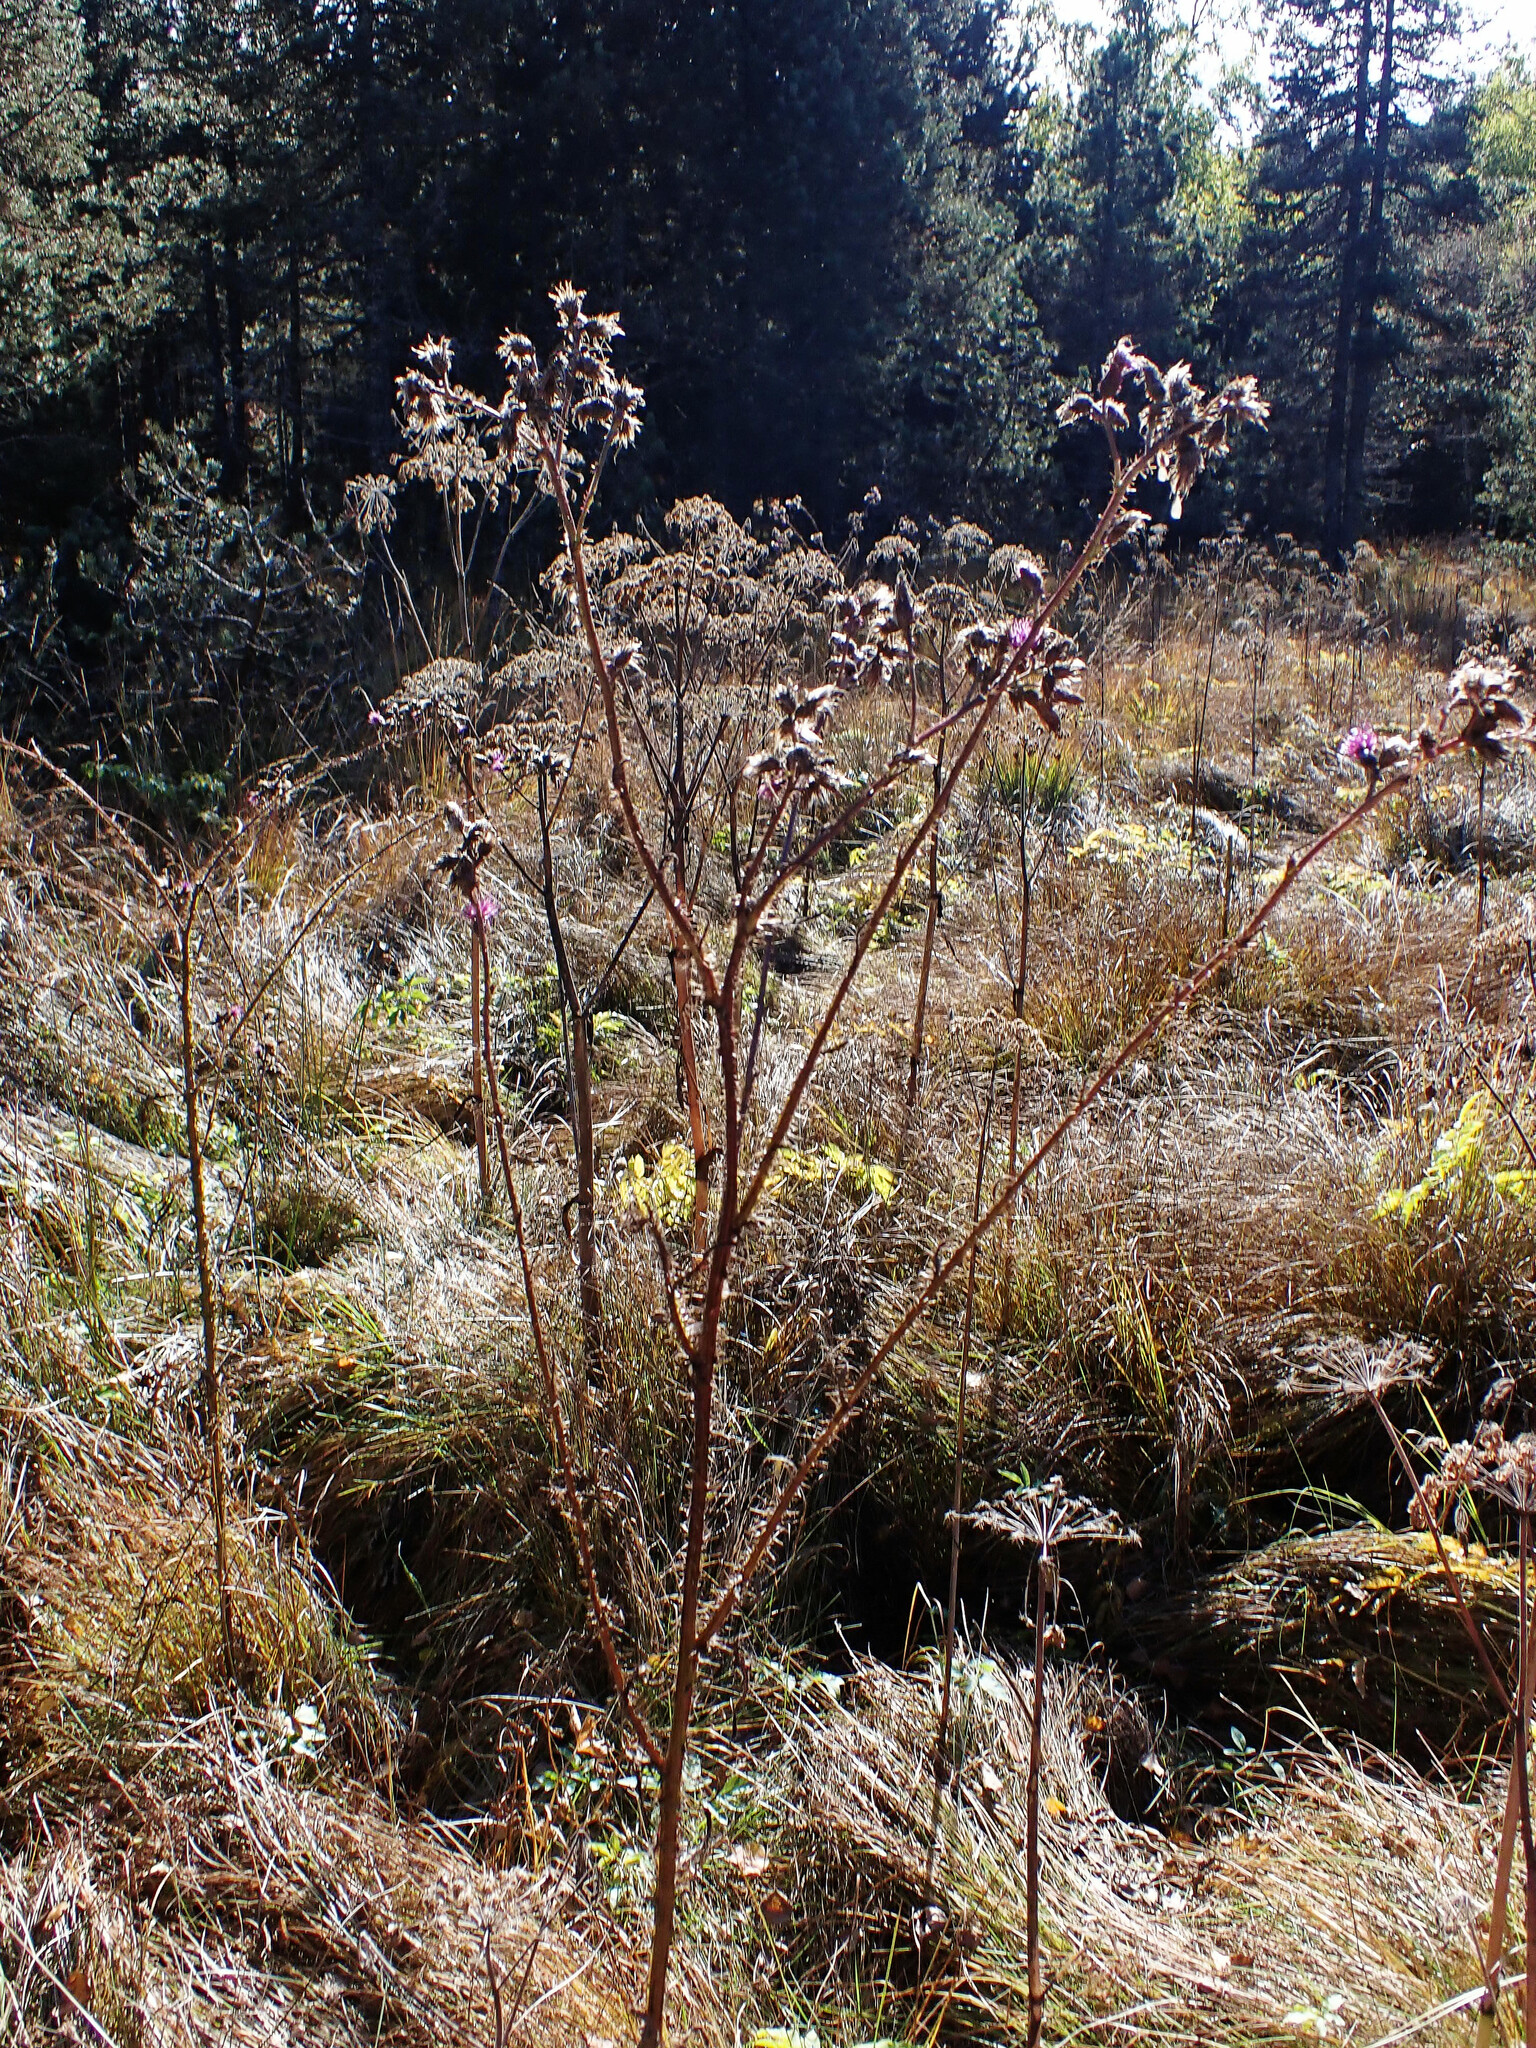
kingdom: Plantae
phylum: Tracheophyta
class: Magnoliopsida
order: Asterales
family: Asteraceae
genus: Cirsium
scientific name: Cirsium palustre
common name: Marsh thistle
